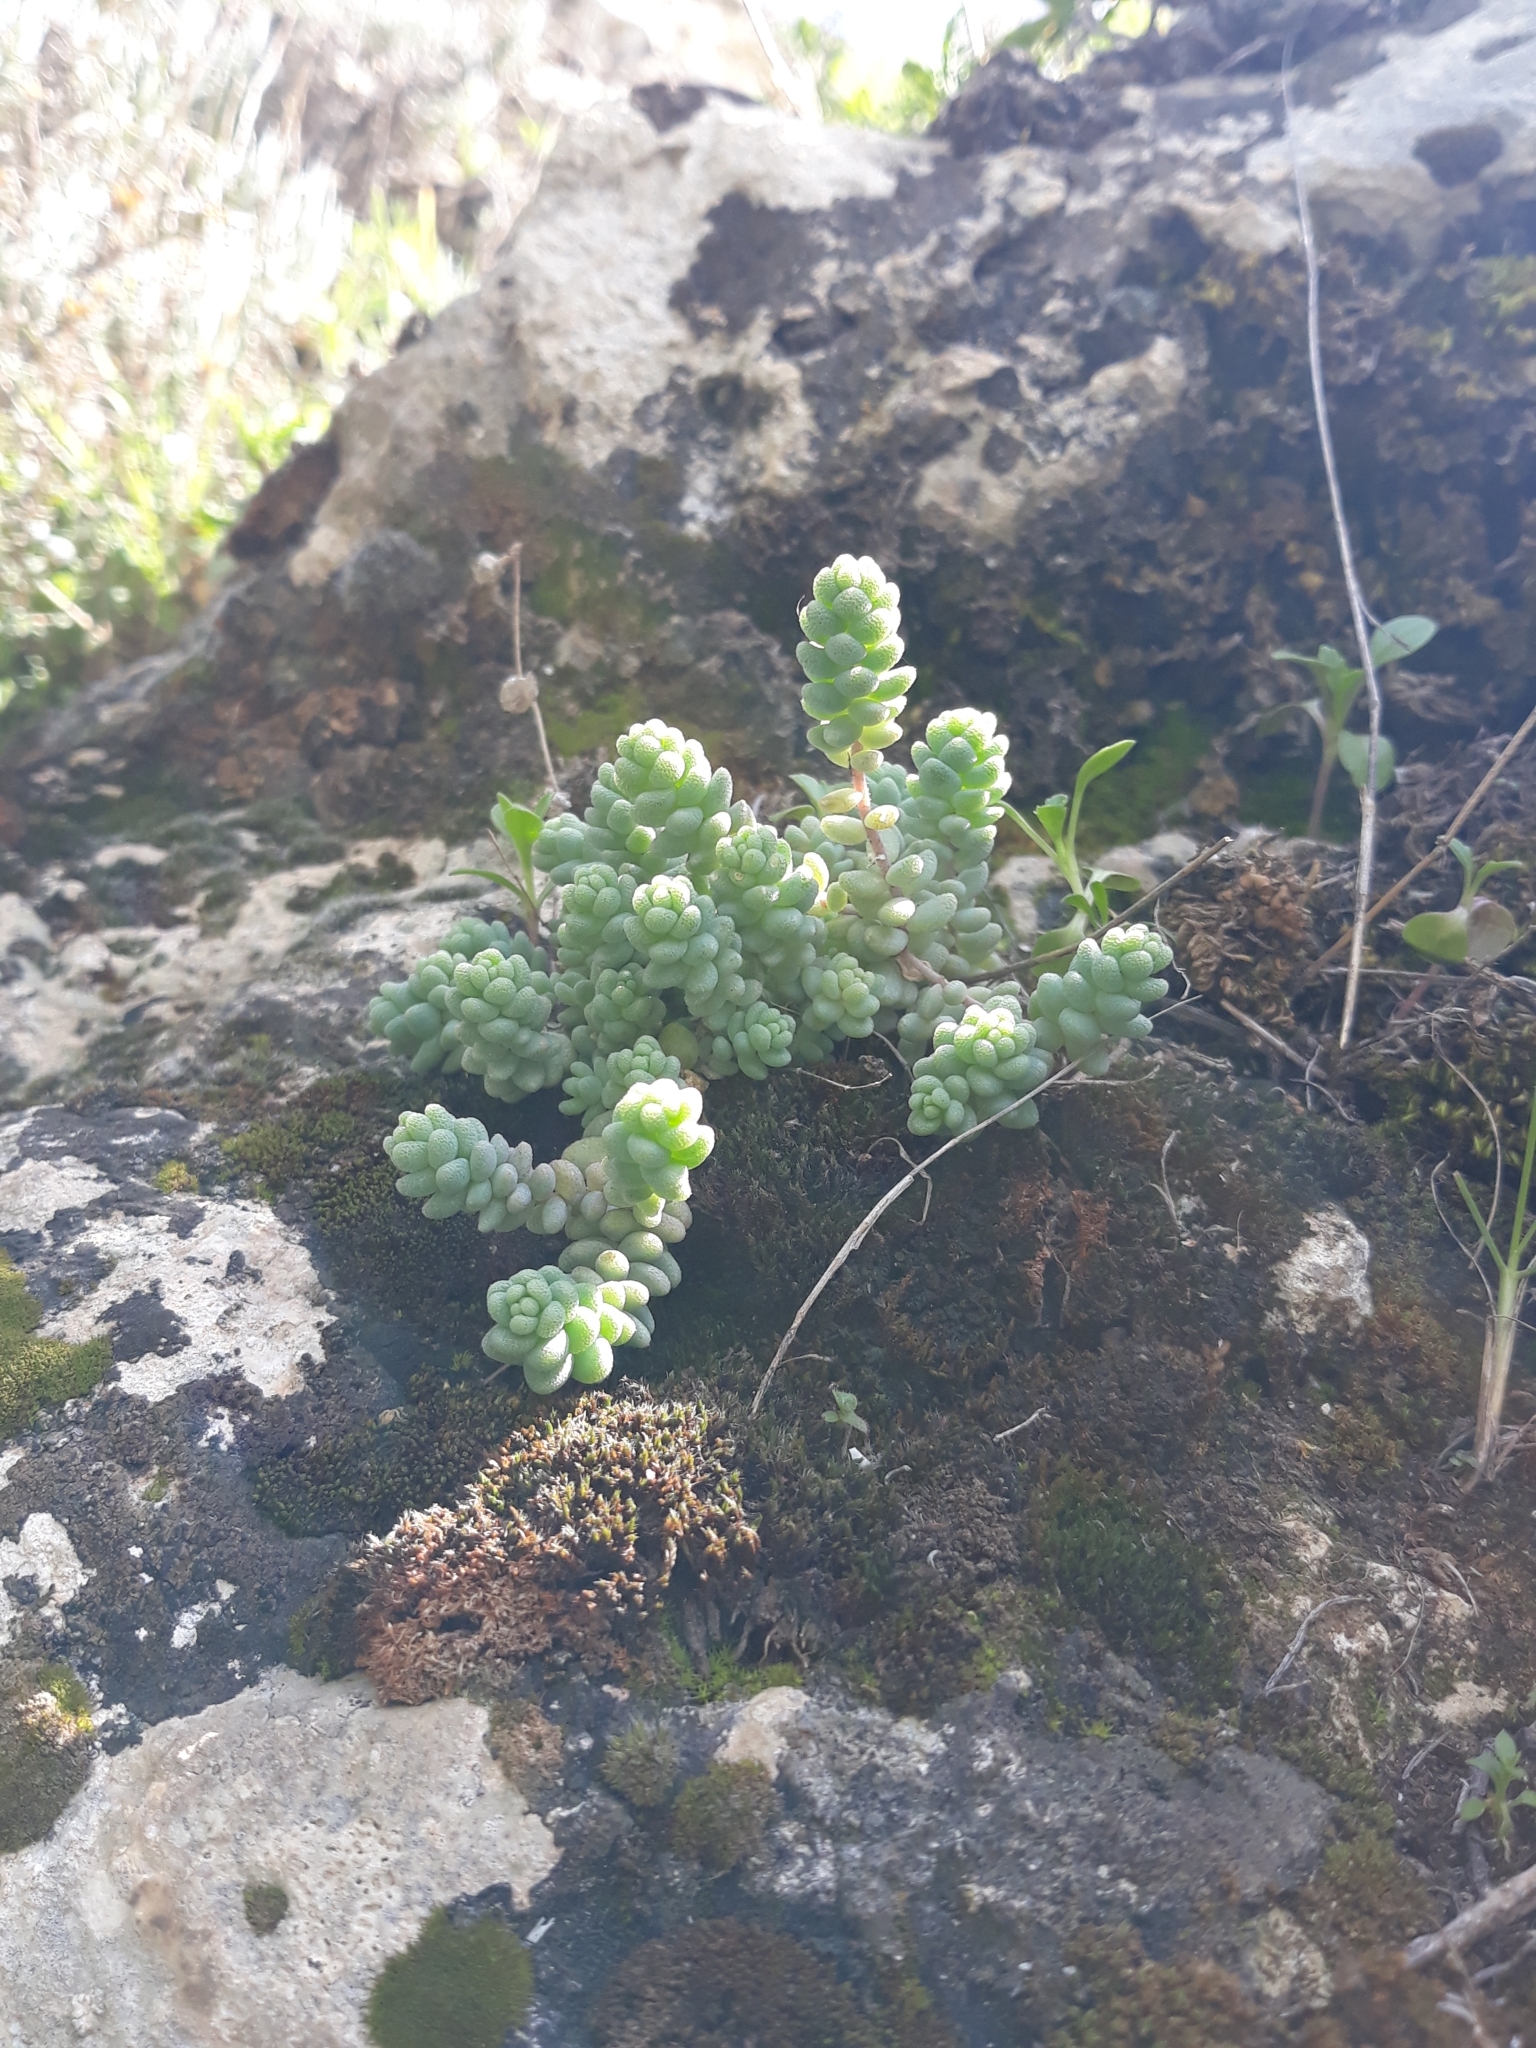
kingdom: Plantae
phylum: Tracheophyta
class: Magnoliopsida
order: Saxifragales
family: Crassulaceae
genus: Sedum
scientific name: Sedum dasyphyllum
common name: Thick-leaf stonecrop
